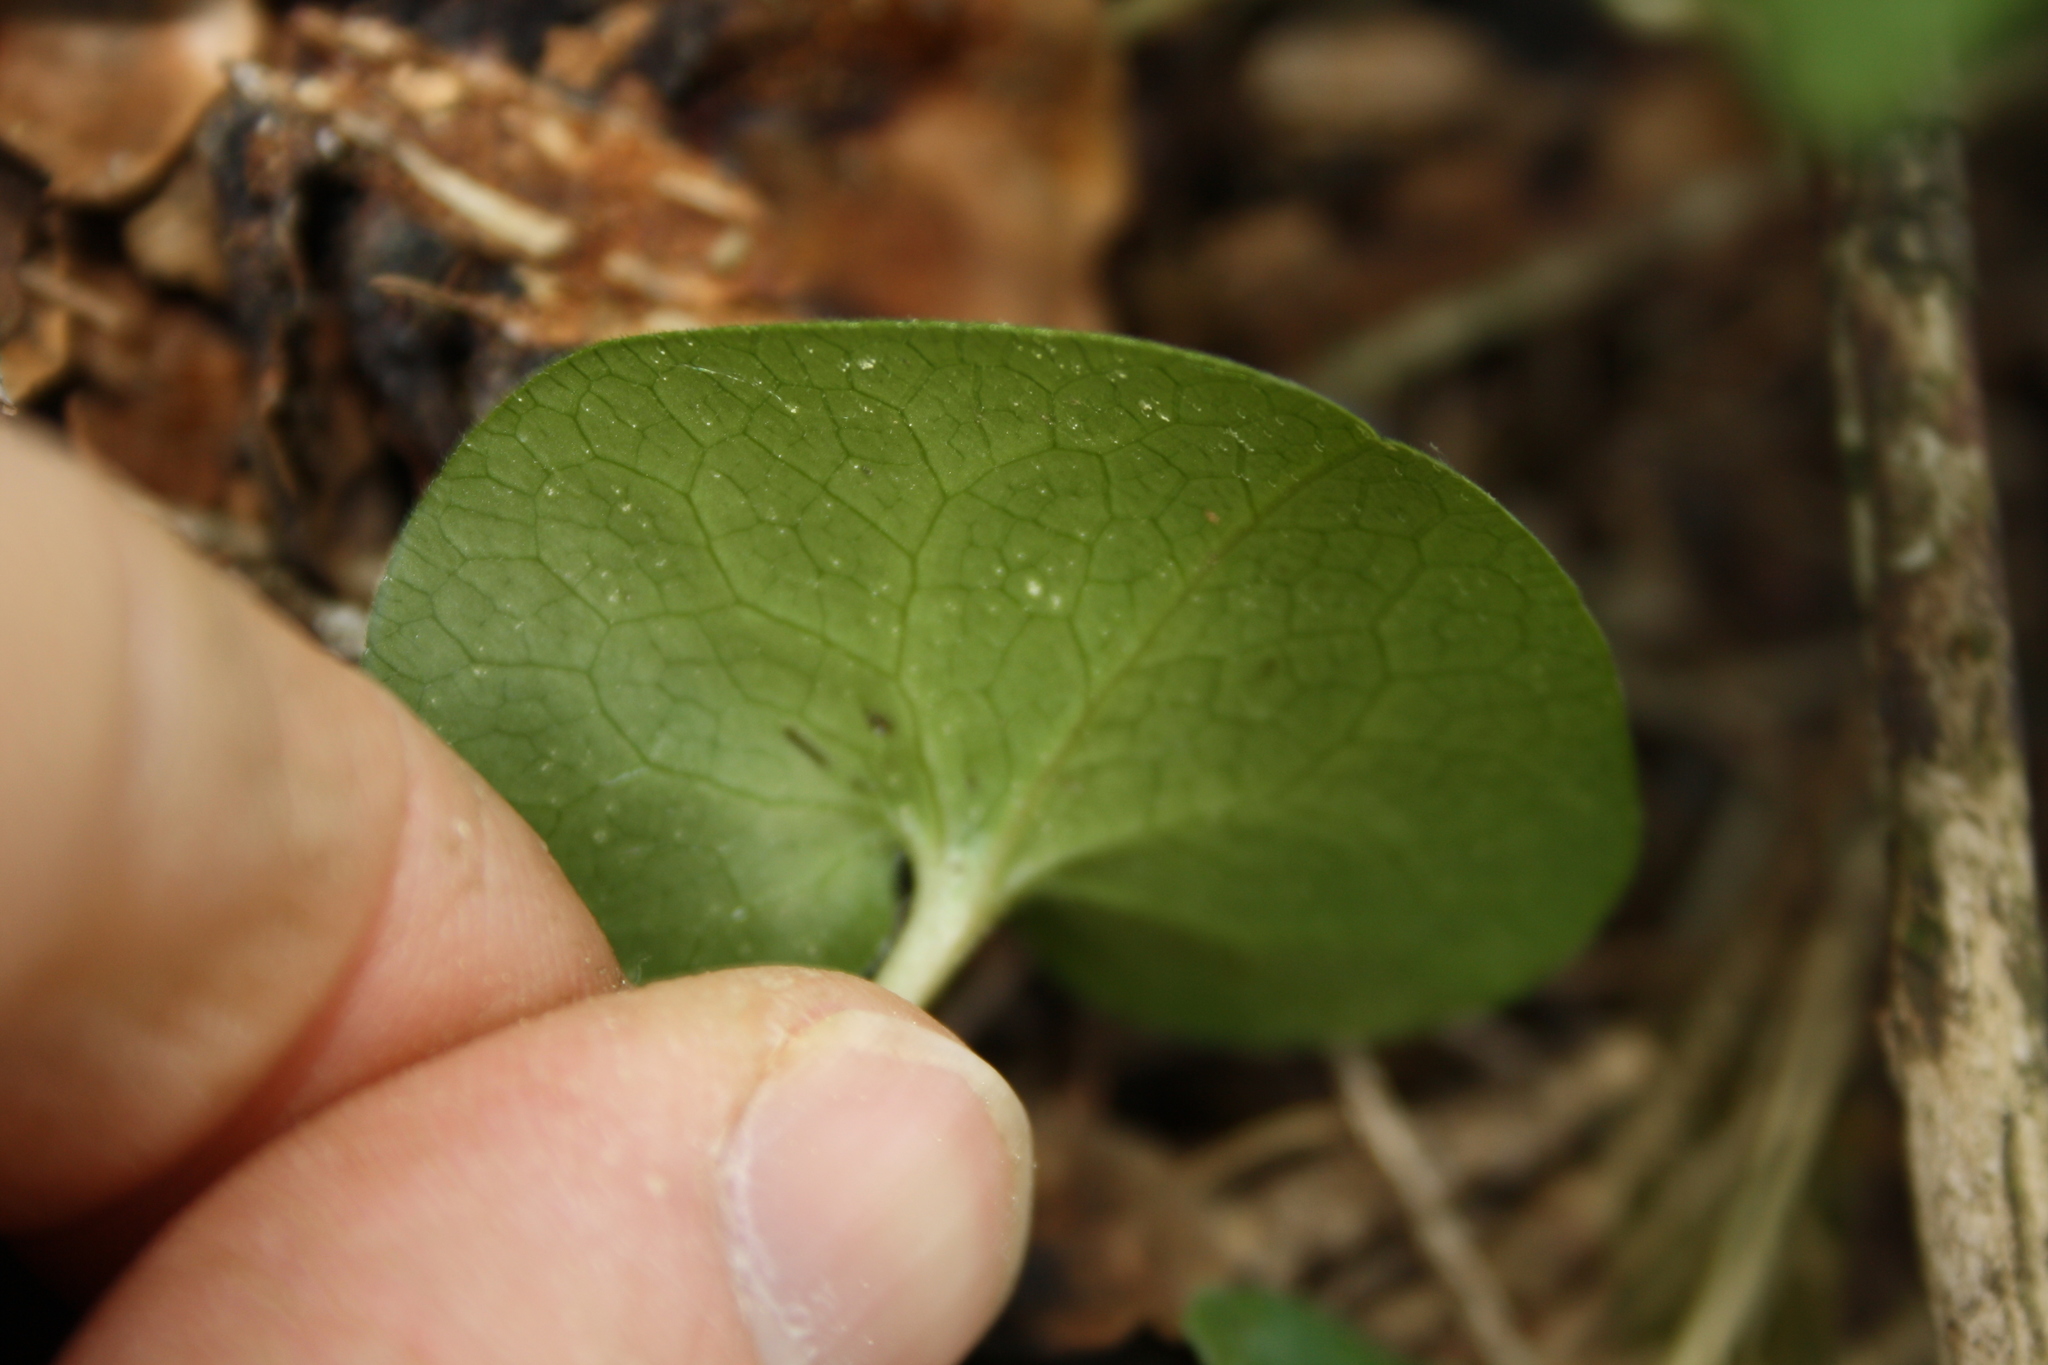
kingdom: Plantae
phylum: Tracheophyta
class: Magnoliopsida
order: Piperales
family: Aristolochiaceae
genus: Asarum
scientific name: Asarum europaeum
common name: Asarabacca
